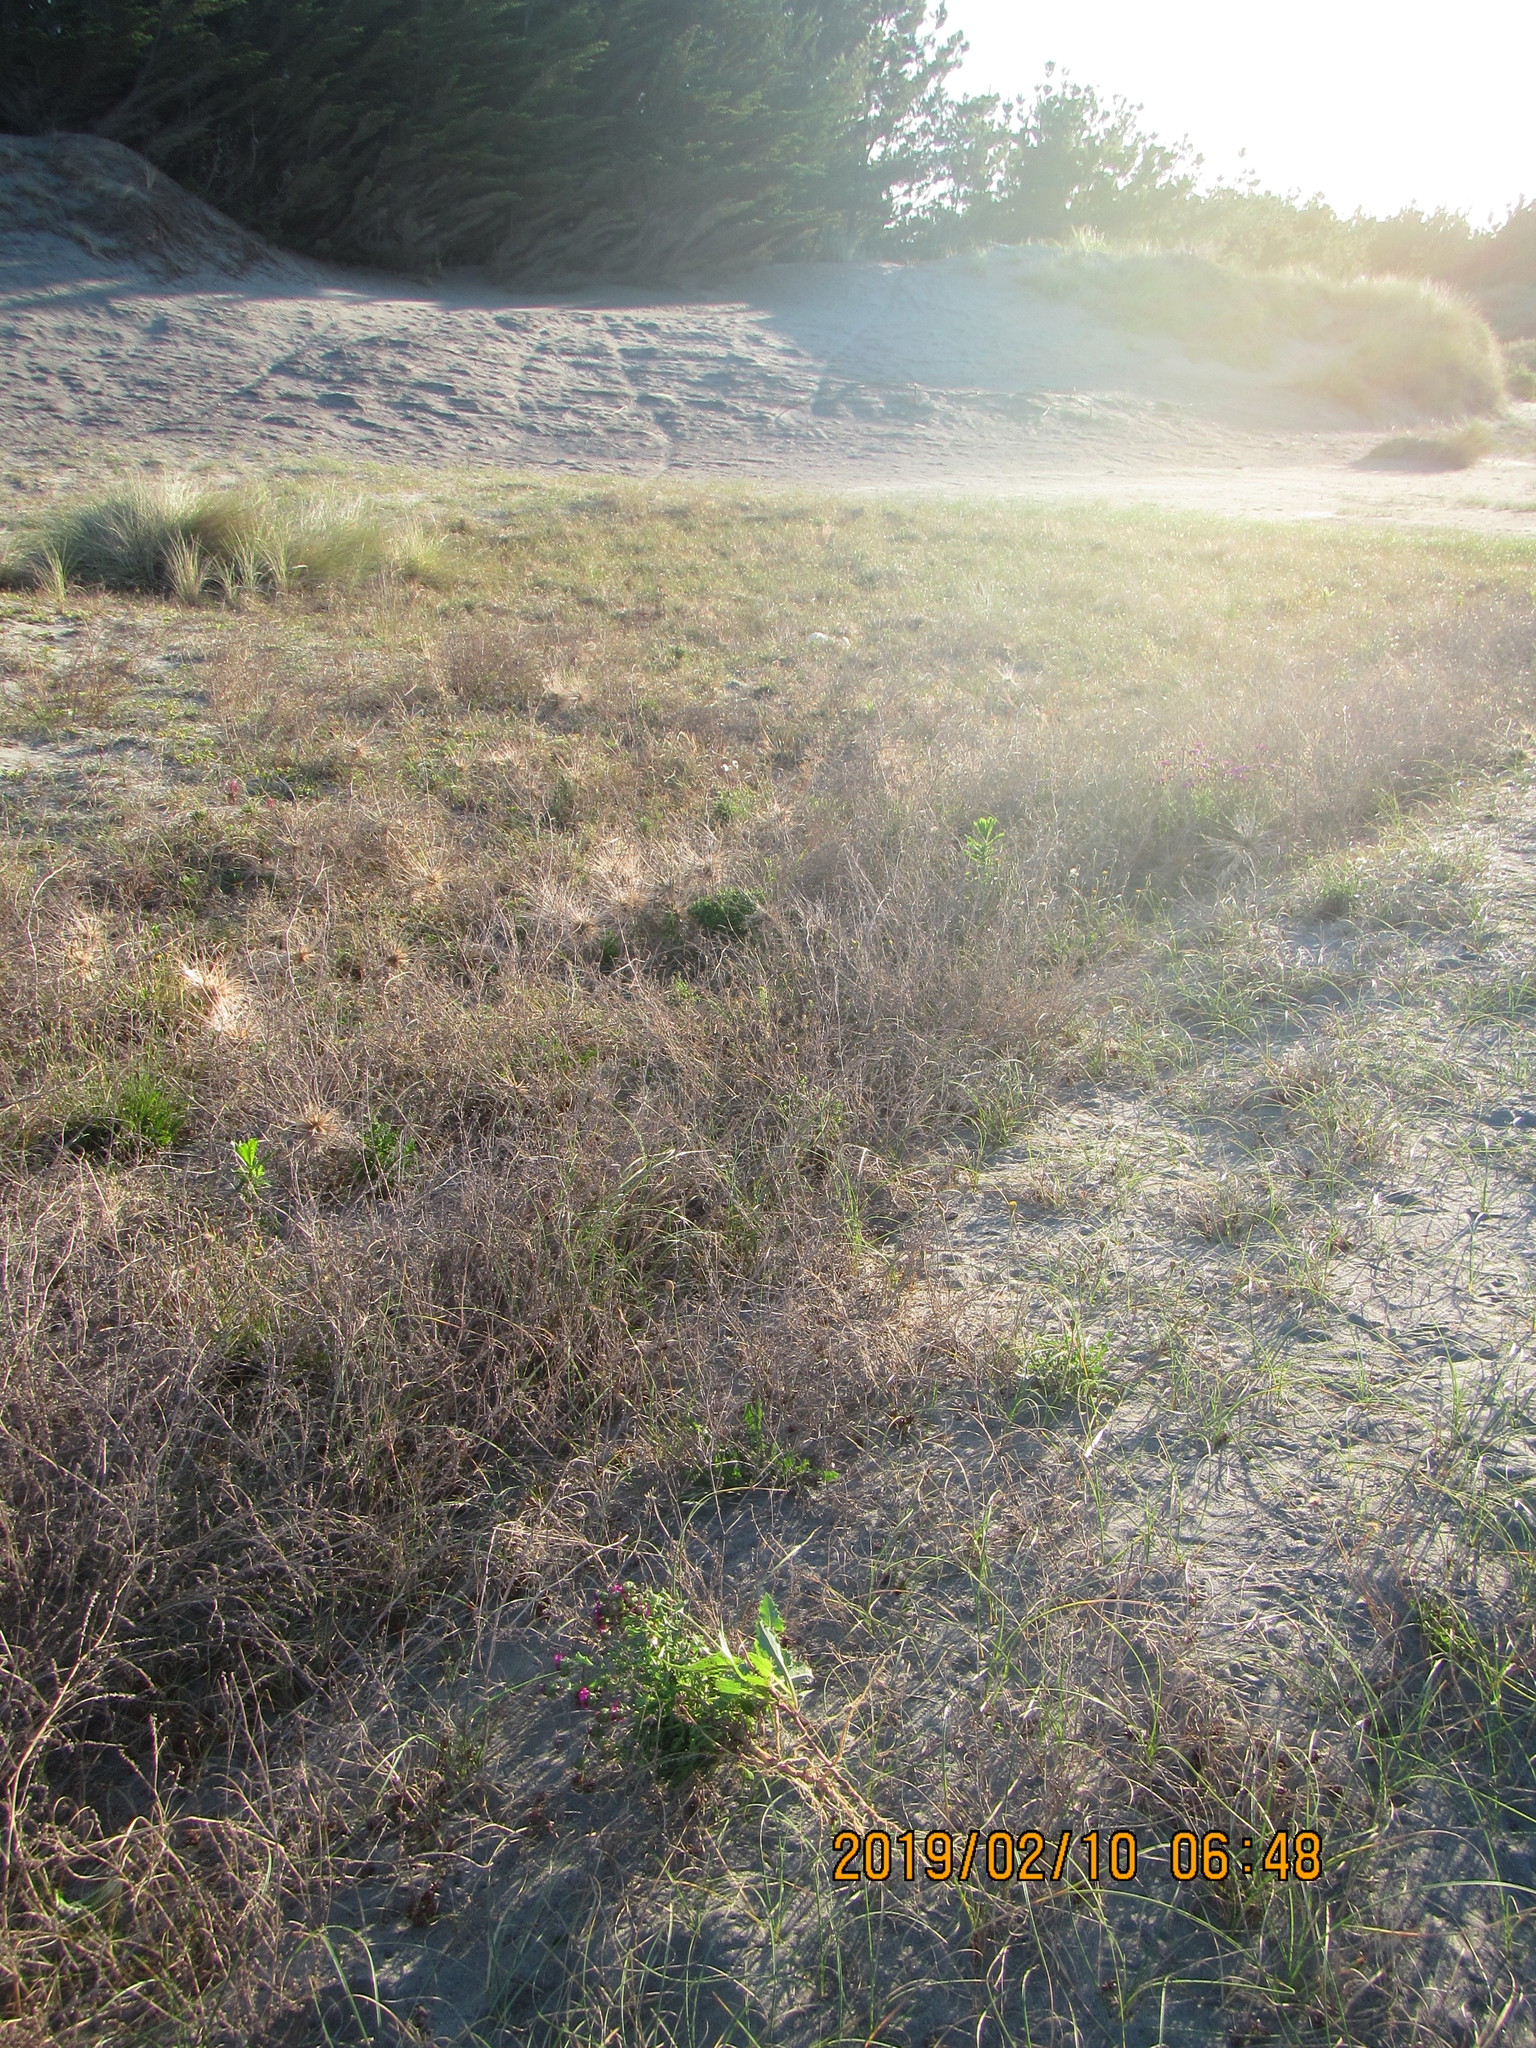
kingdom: Plantae
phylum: Tracheophyta
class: Magnoliopsida
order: Asterales
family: Asteraceae
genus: Sonchus
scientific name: Sonchus asper
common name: Prickly sow-thistle
